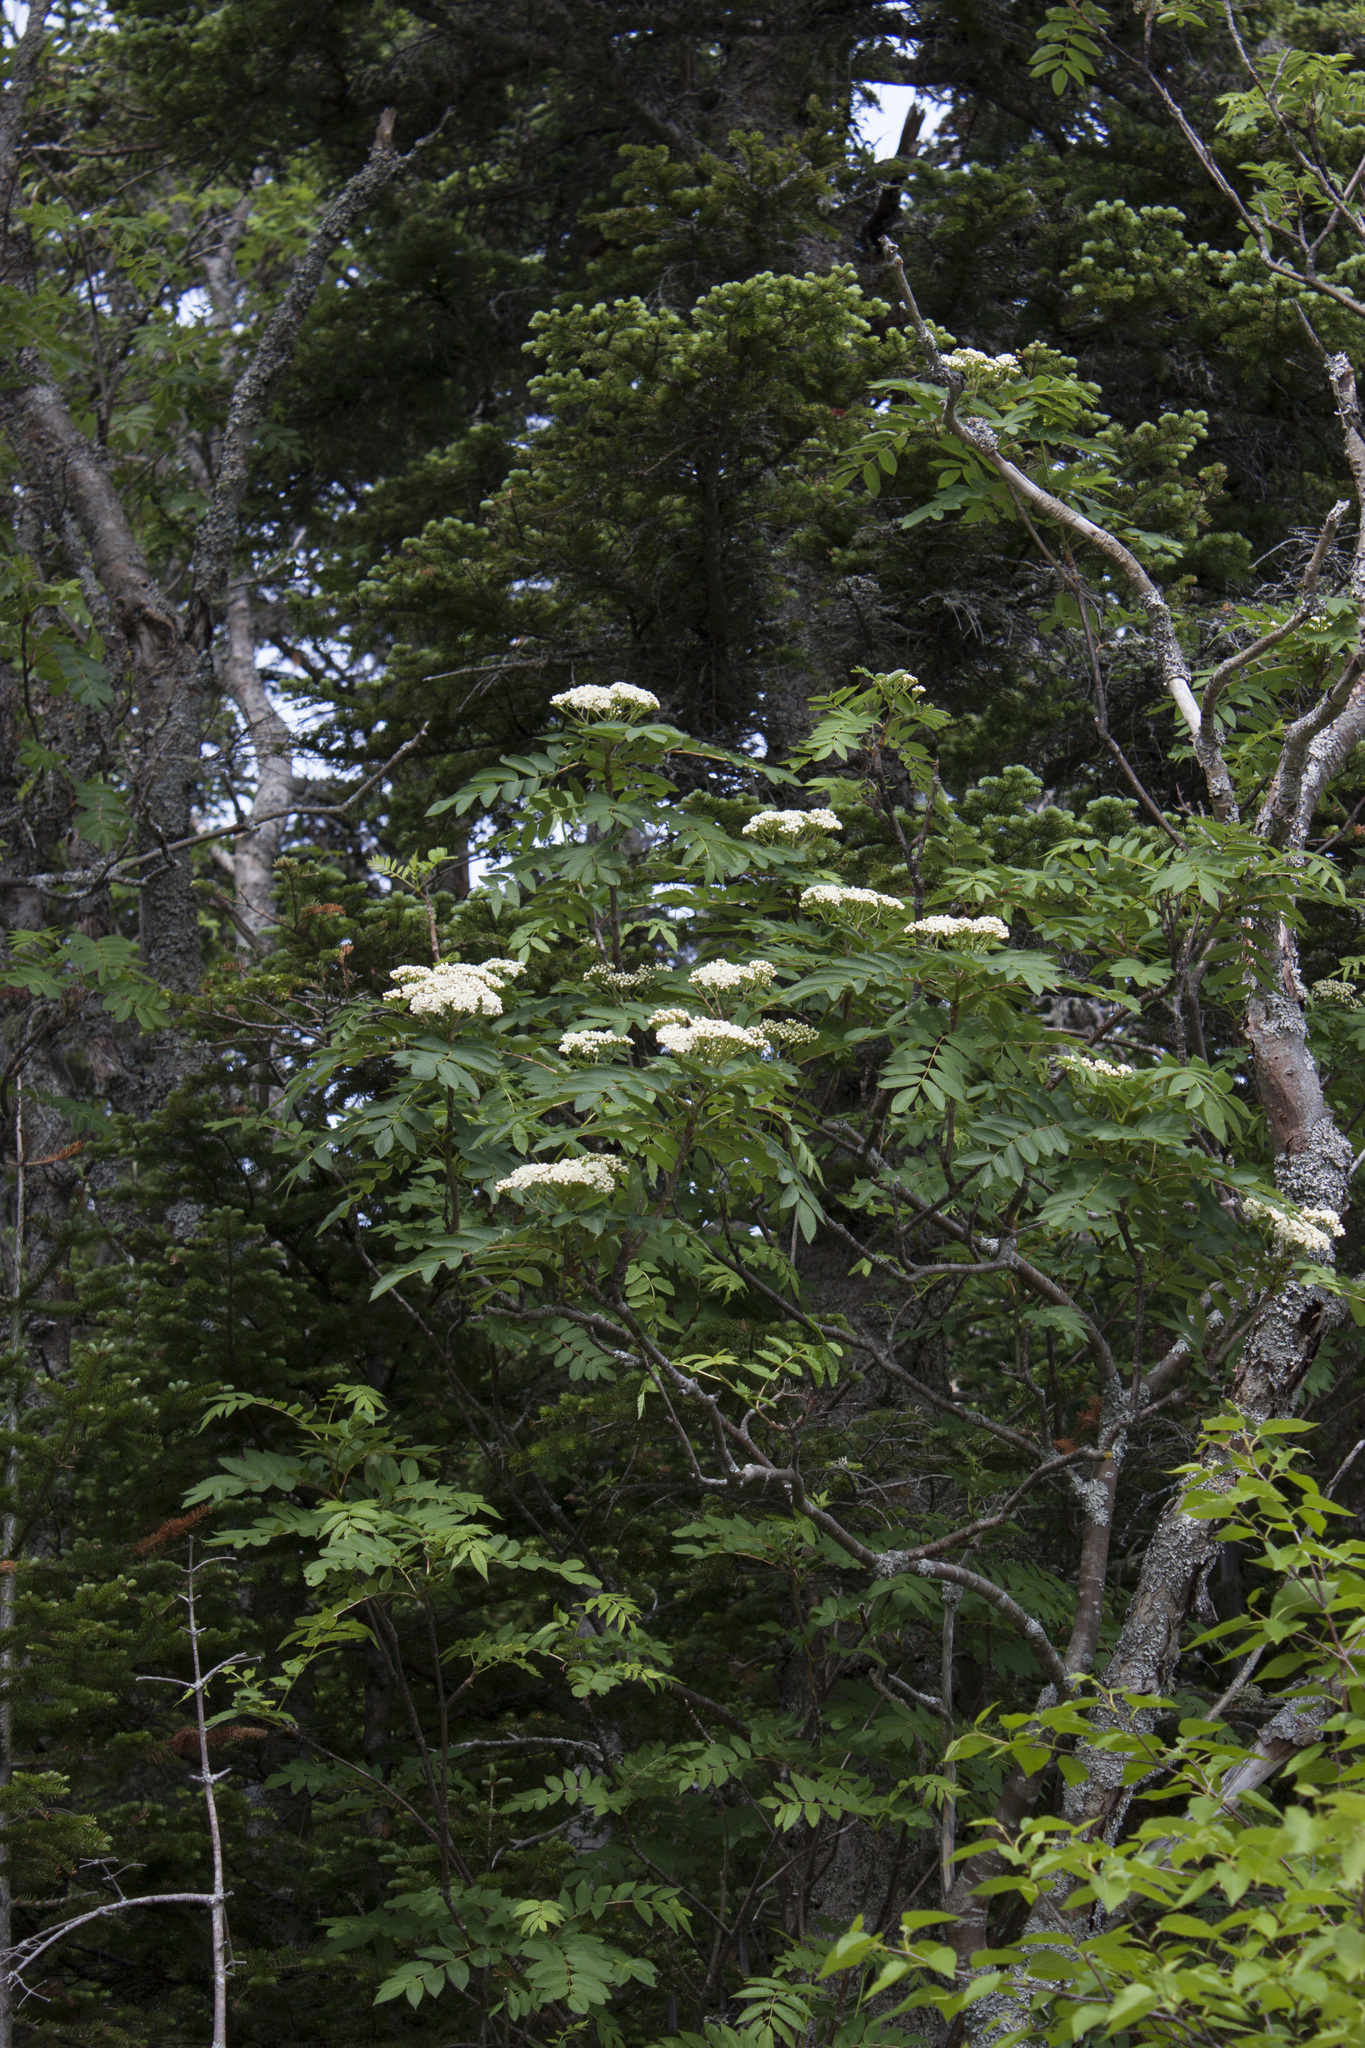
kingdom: Plantae
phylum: Tracheophyta
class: Magnoliopsida
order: Rosales
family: Rosaceae
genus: Sorbus
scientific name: Sorbus americana
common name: American mountain-ash
